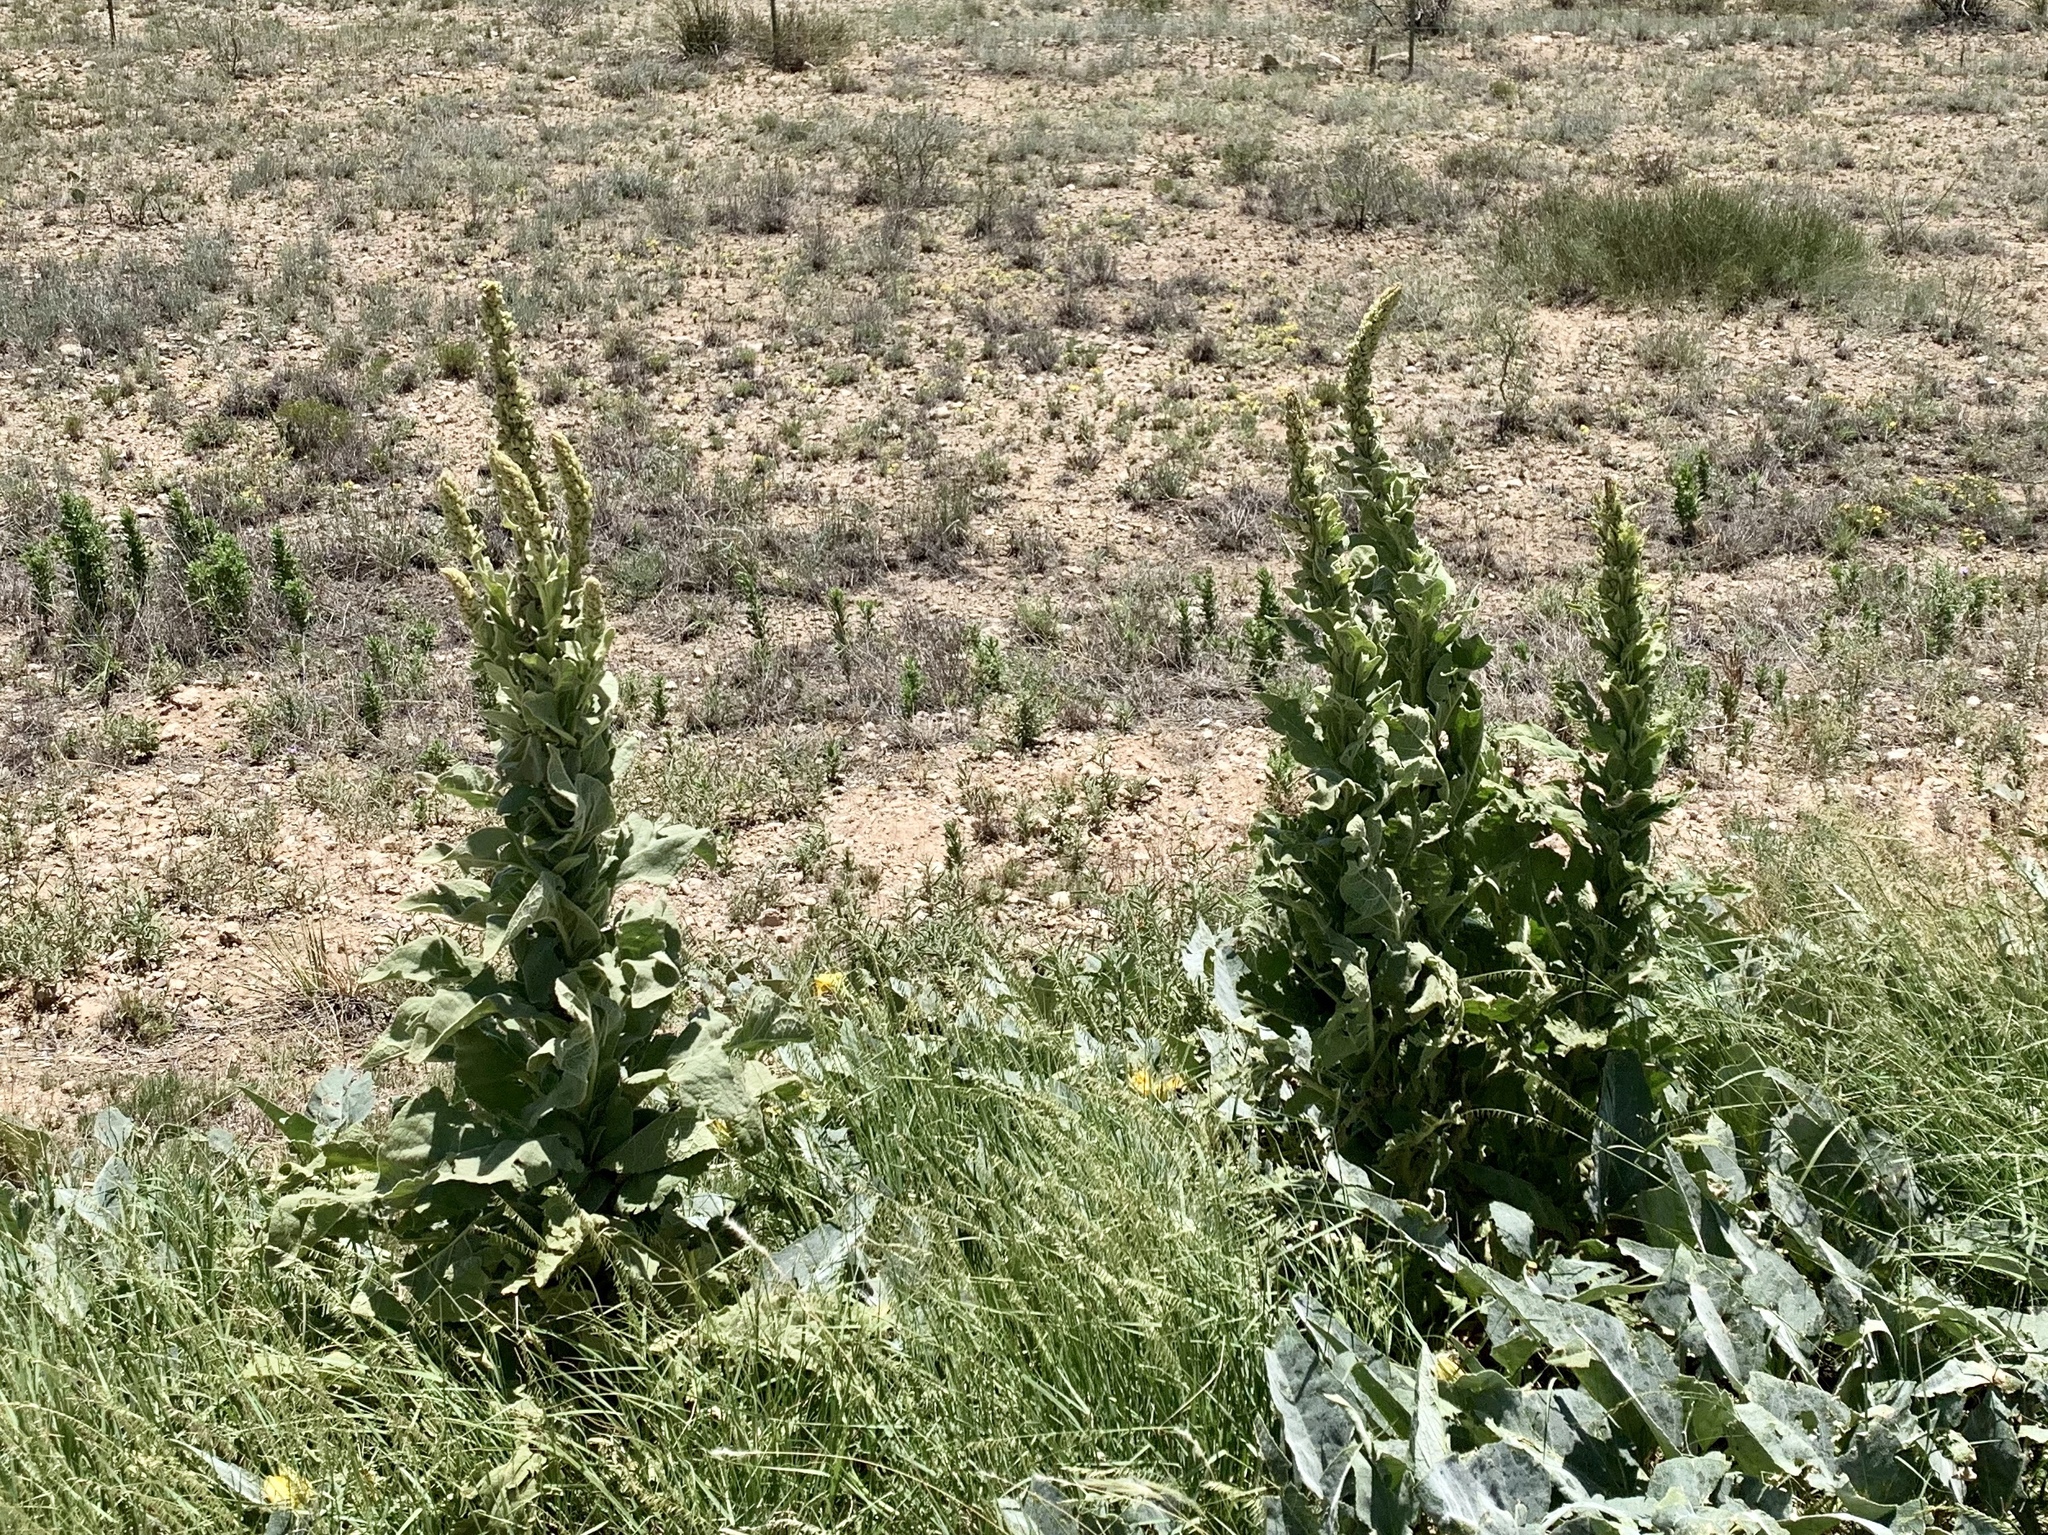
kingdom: Plantae
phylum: Tracheophyta
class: Magnoliopsida
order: Lamiales
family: Scrophulariaceae
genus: Verbascum
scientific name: Verbascum thapsus
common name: Common mullein
